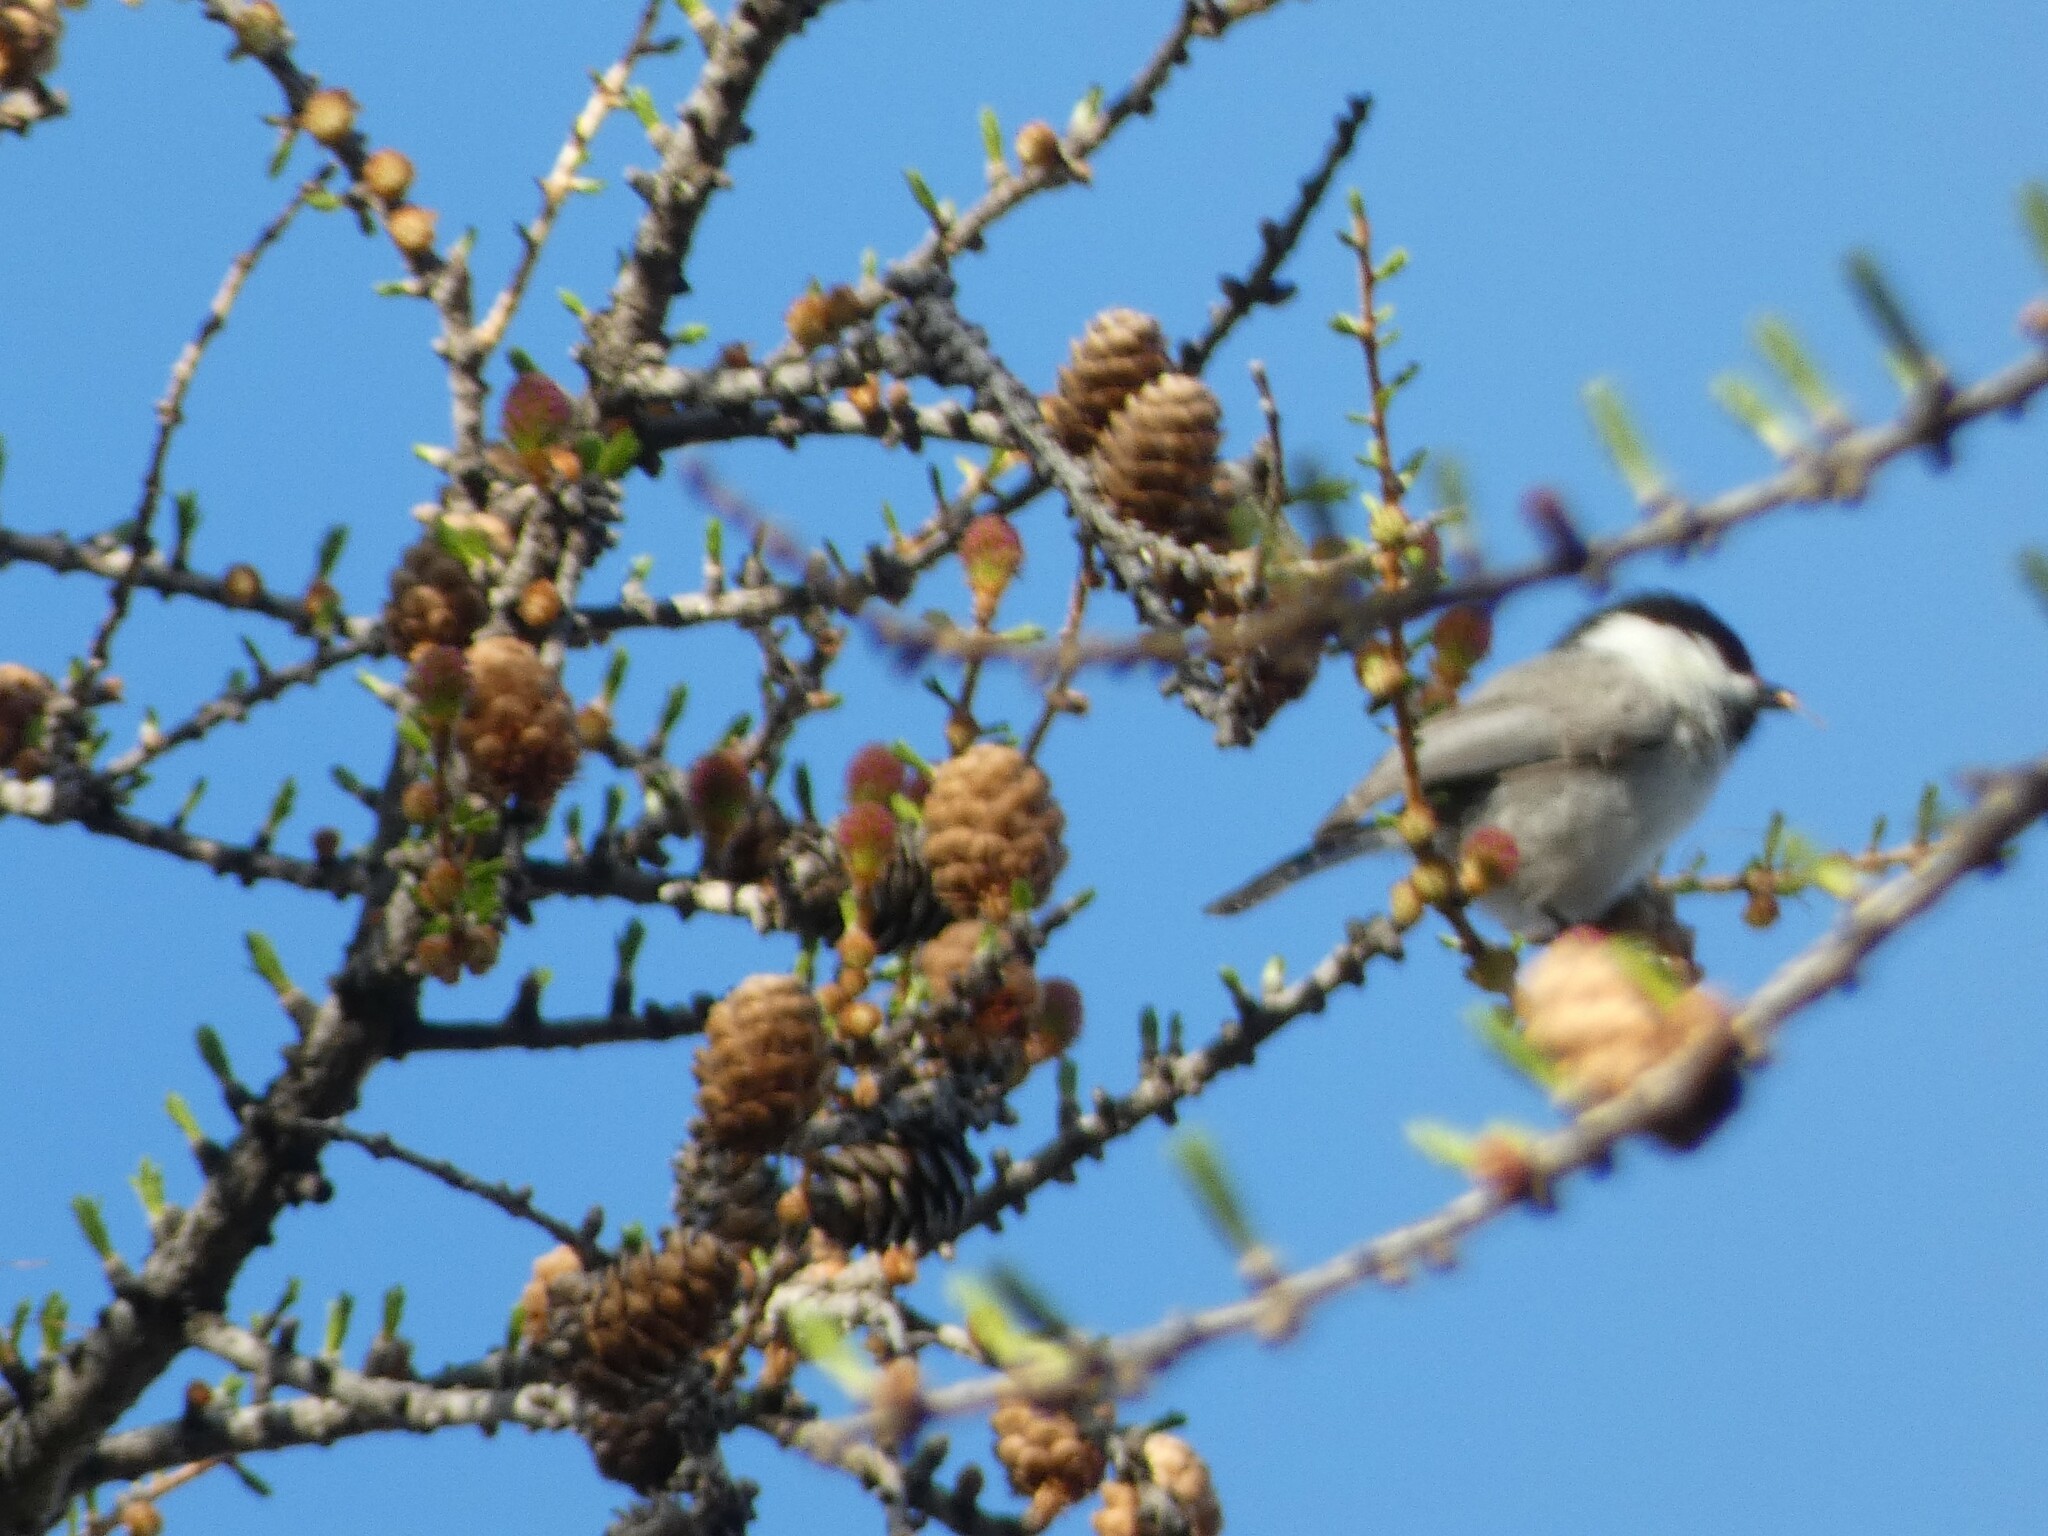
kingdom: Animalia
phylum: Chordata
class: Aves
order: Passeriformes
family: Paridae
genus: Poecile
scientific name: Poecile palustris
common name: Marsh tit
